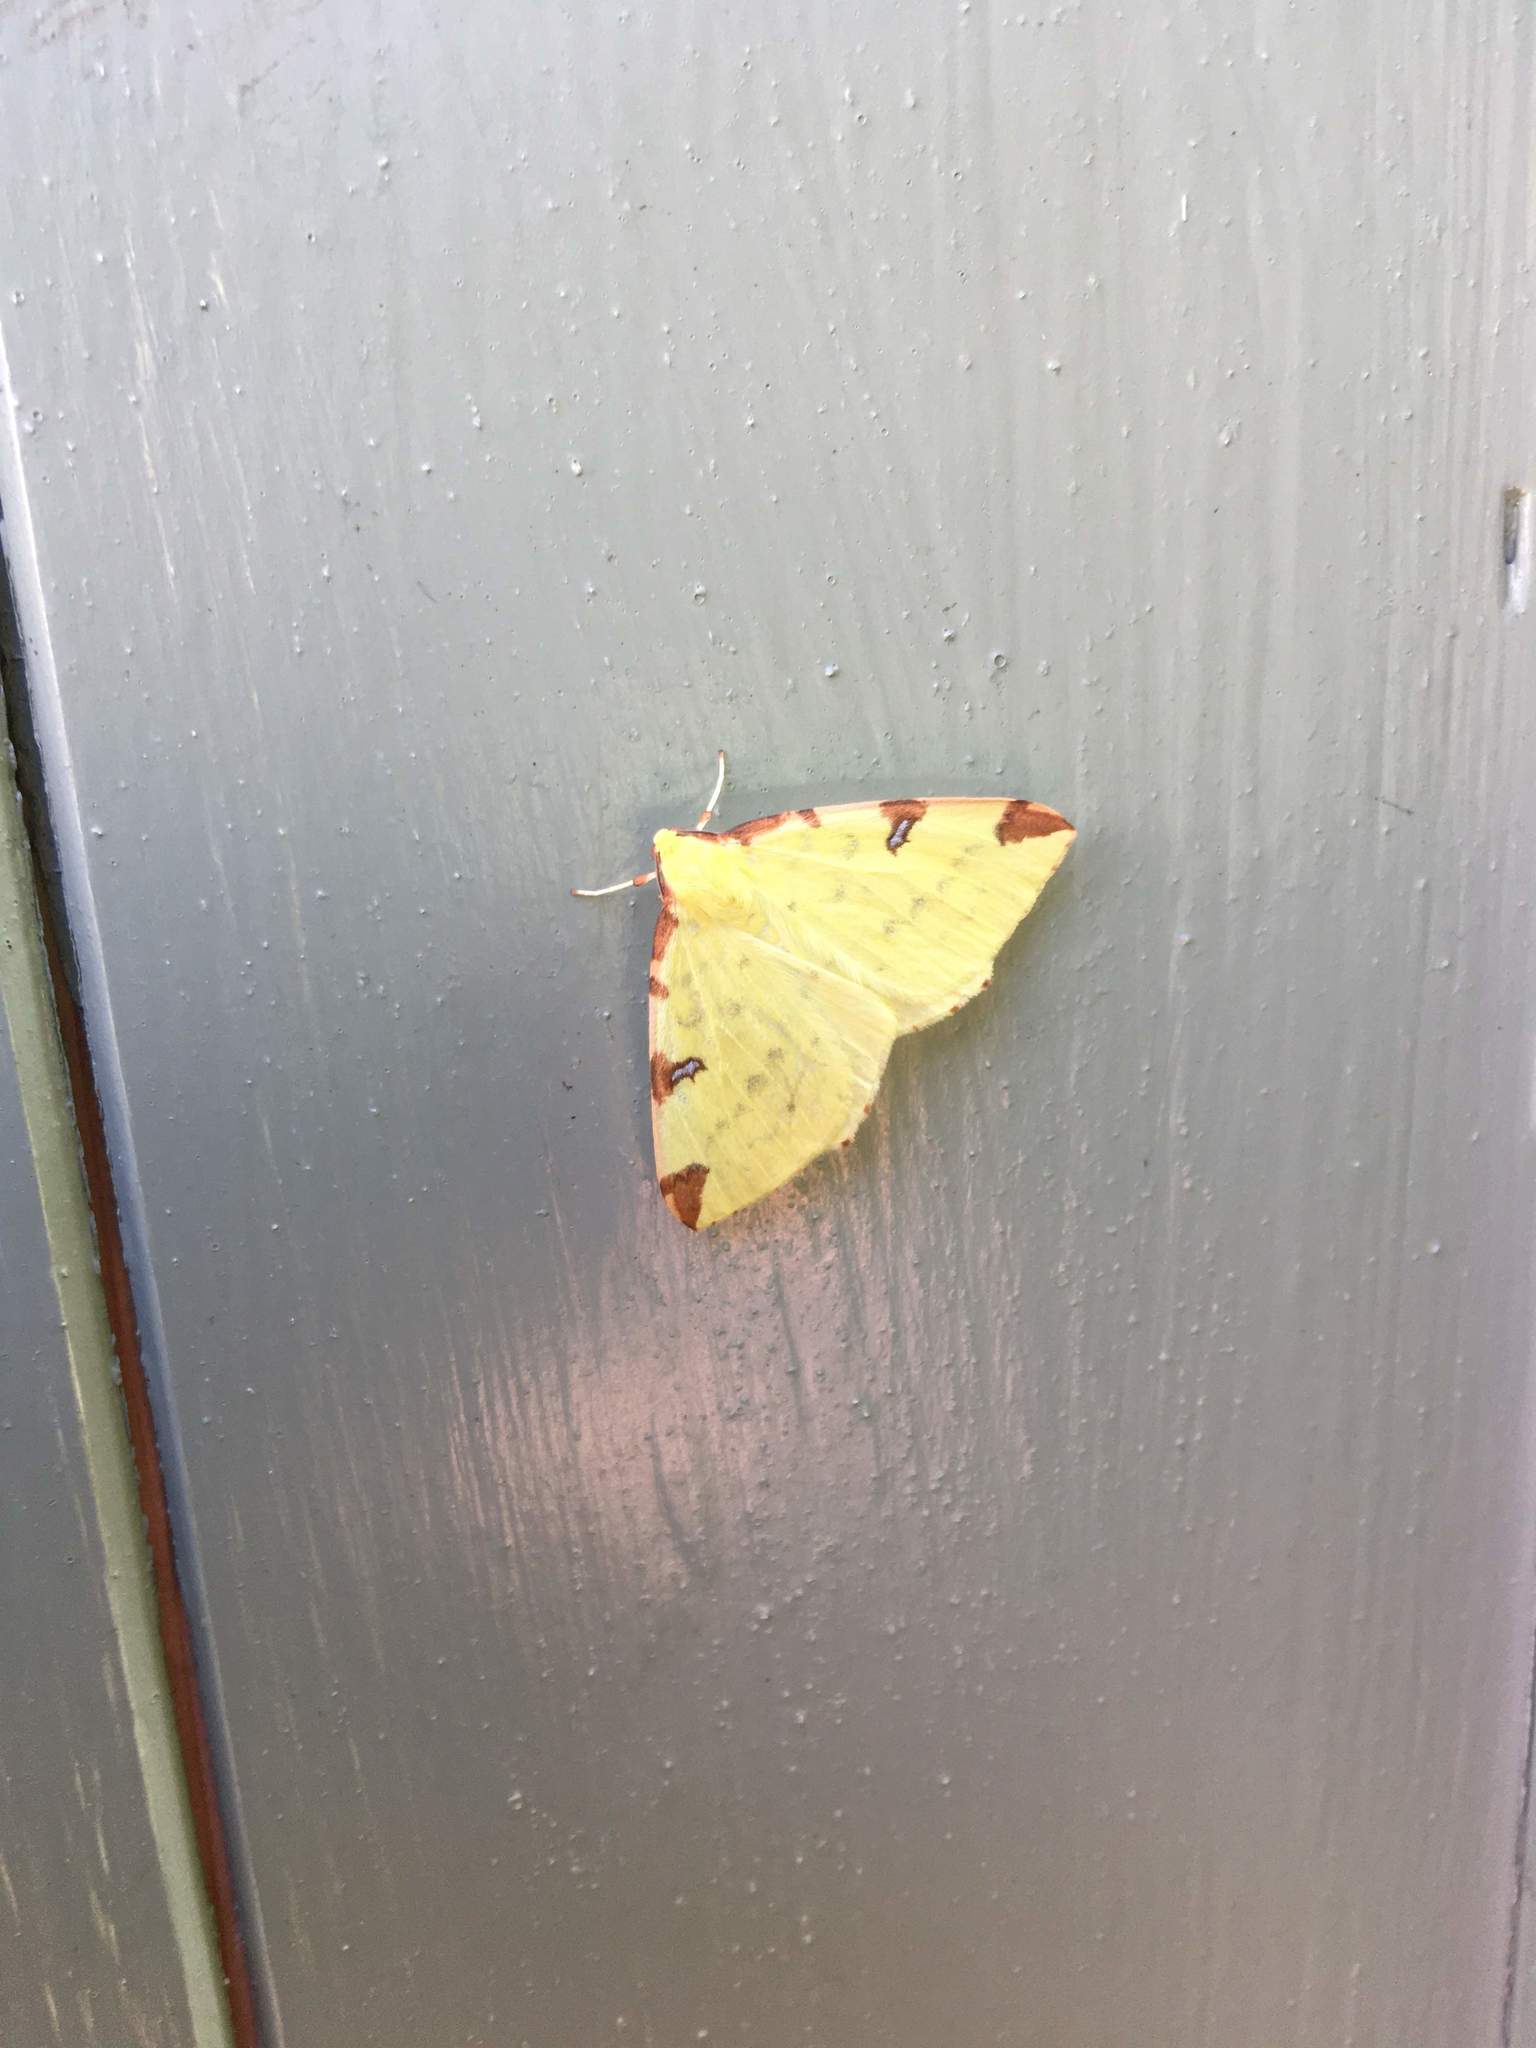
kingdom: Animalia
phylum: Arthropoda
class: Insecta
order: Lepidoptera
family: Geometridae
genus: Opisthograptis
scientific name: Opisthograptis luteolata
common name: Brimstone moth
